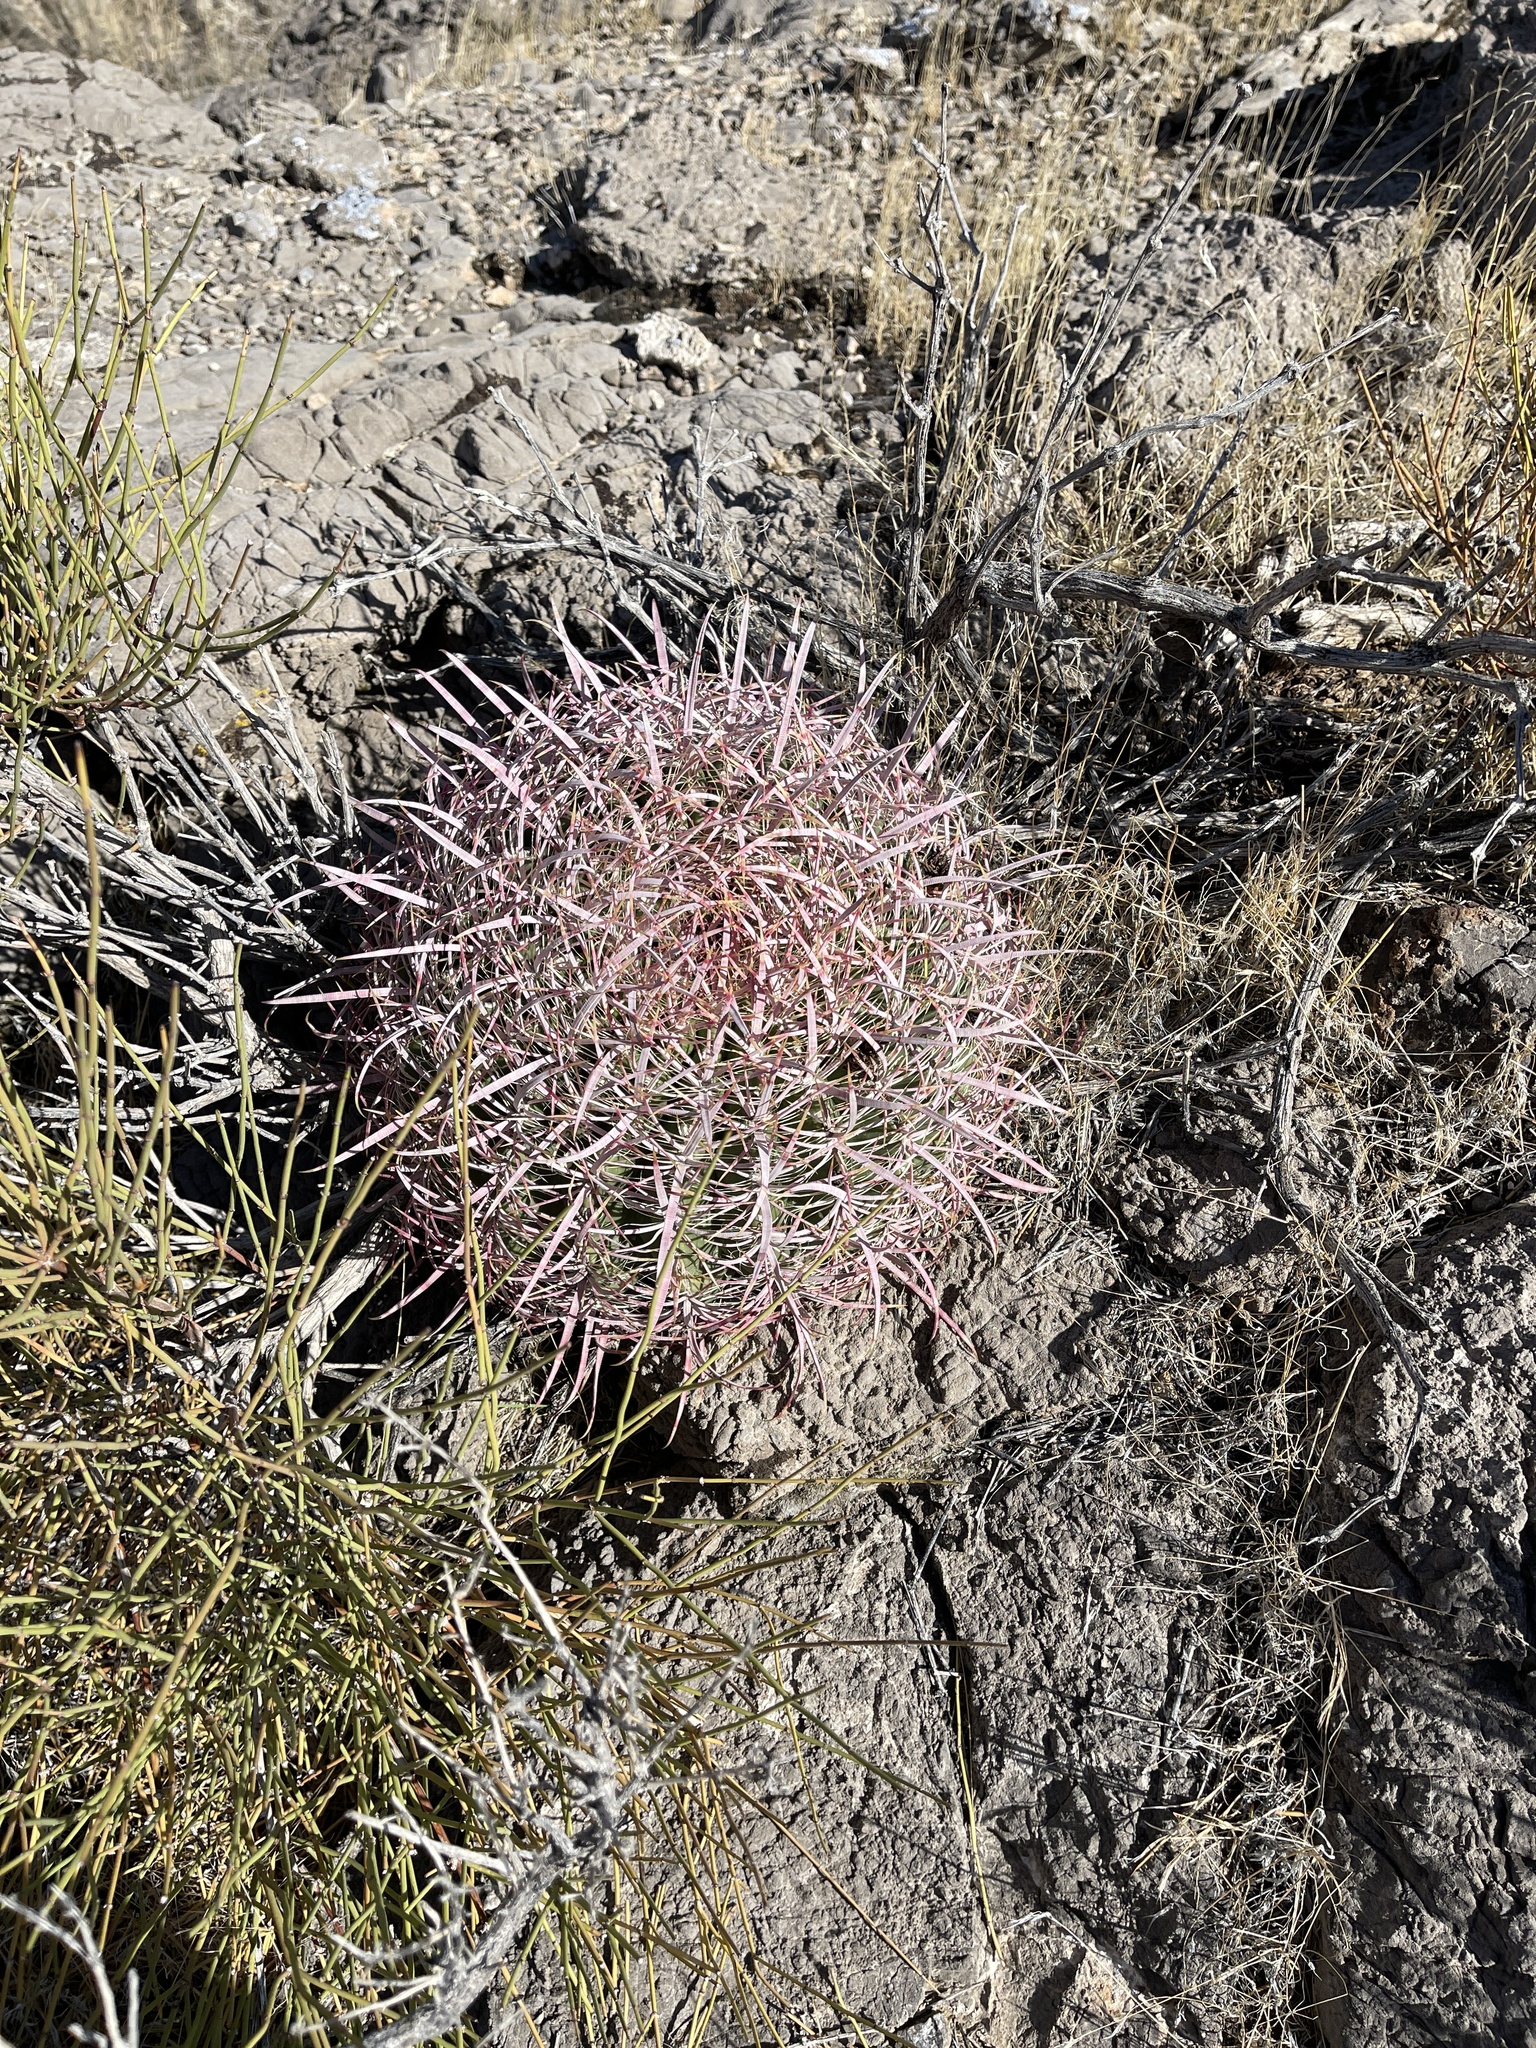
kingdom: Plantae
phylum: Tracheophyta
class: Magnoliopsida
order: Caryophyllales
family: Cactaceae
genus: Ferocactus
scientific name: Ferocactus cylindraceus
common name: California barrel cactus
